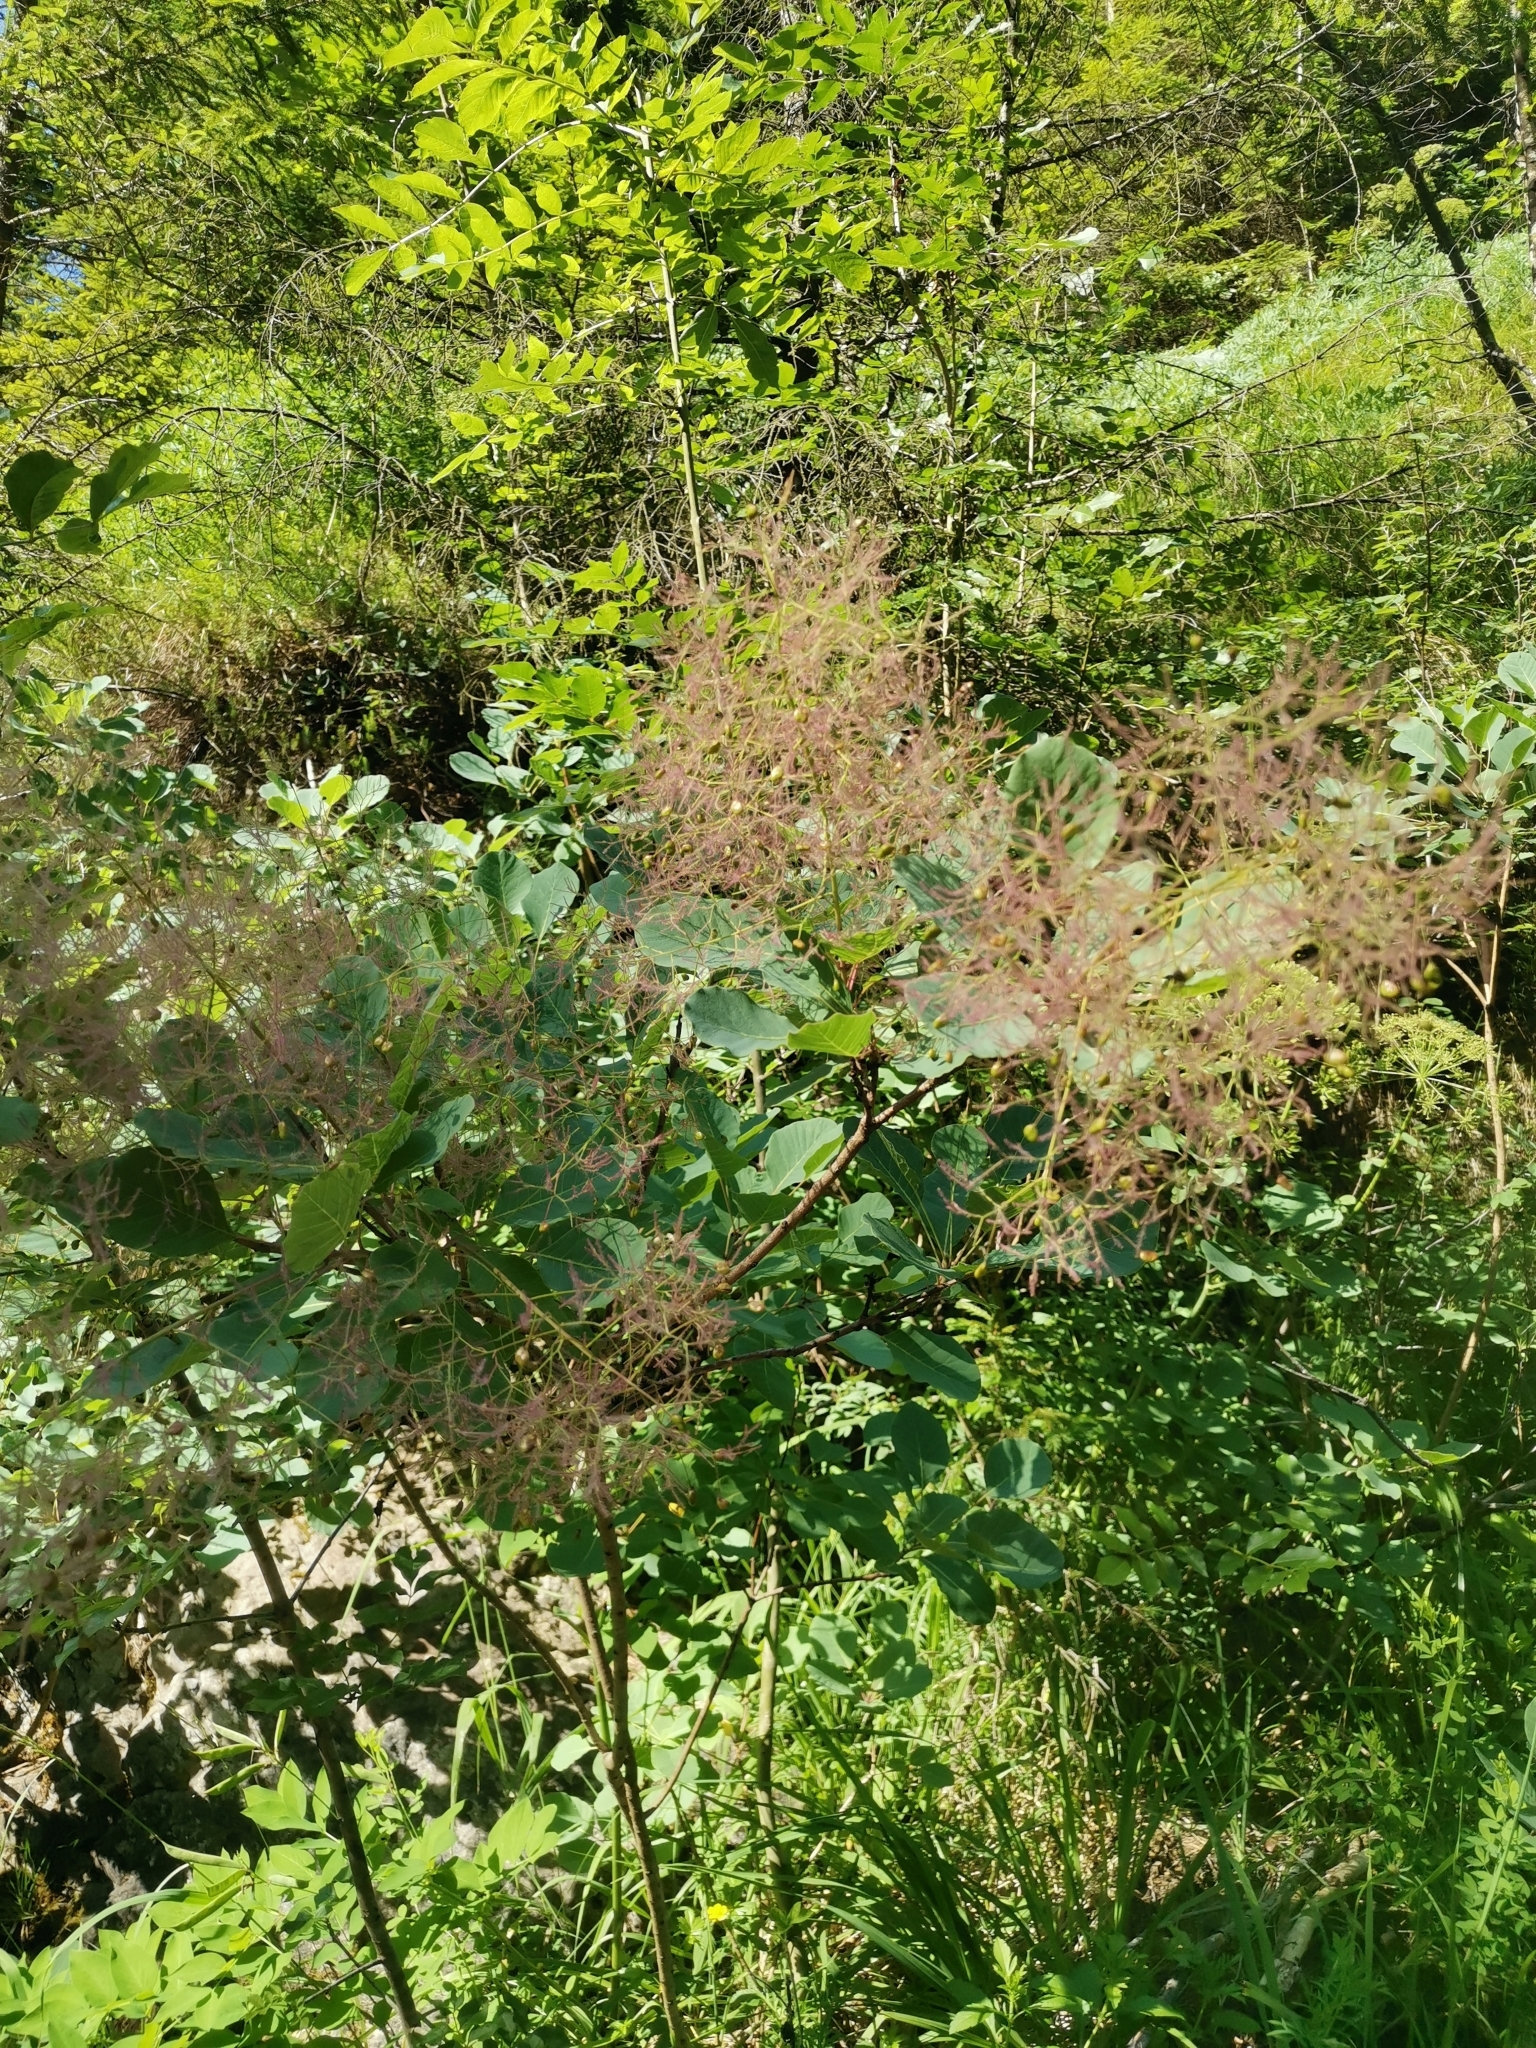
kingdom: Plantae
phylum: Tracheophyta
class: Magnoliopsida
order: Sapindales
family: Anacardiaceae
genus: Cotinus
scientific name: Cotinus coggygria
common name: Smoke-tree
